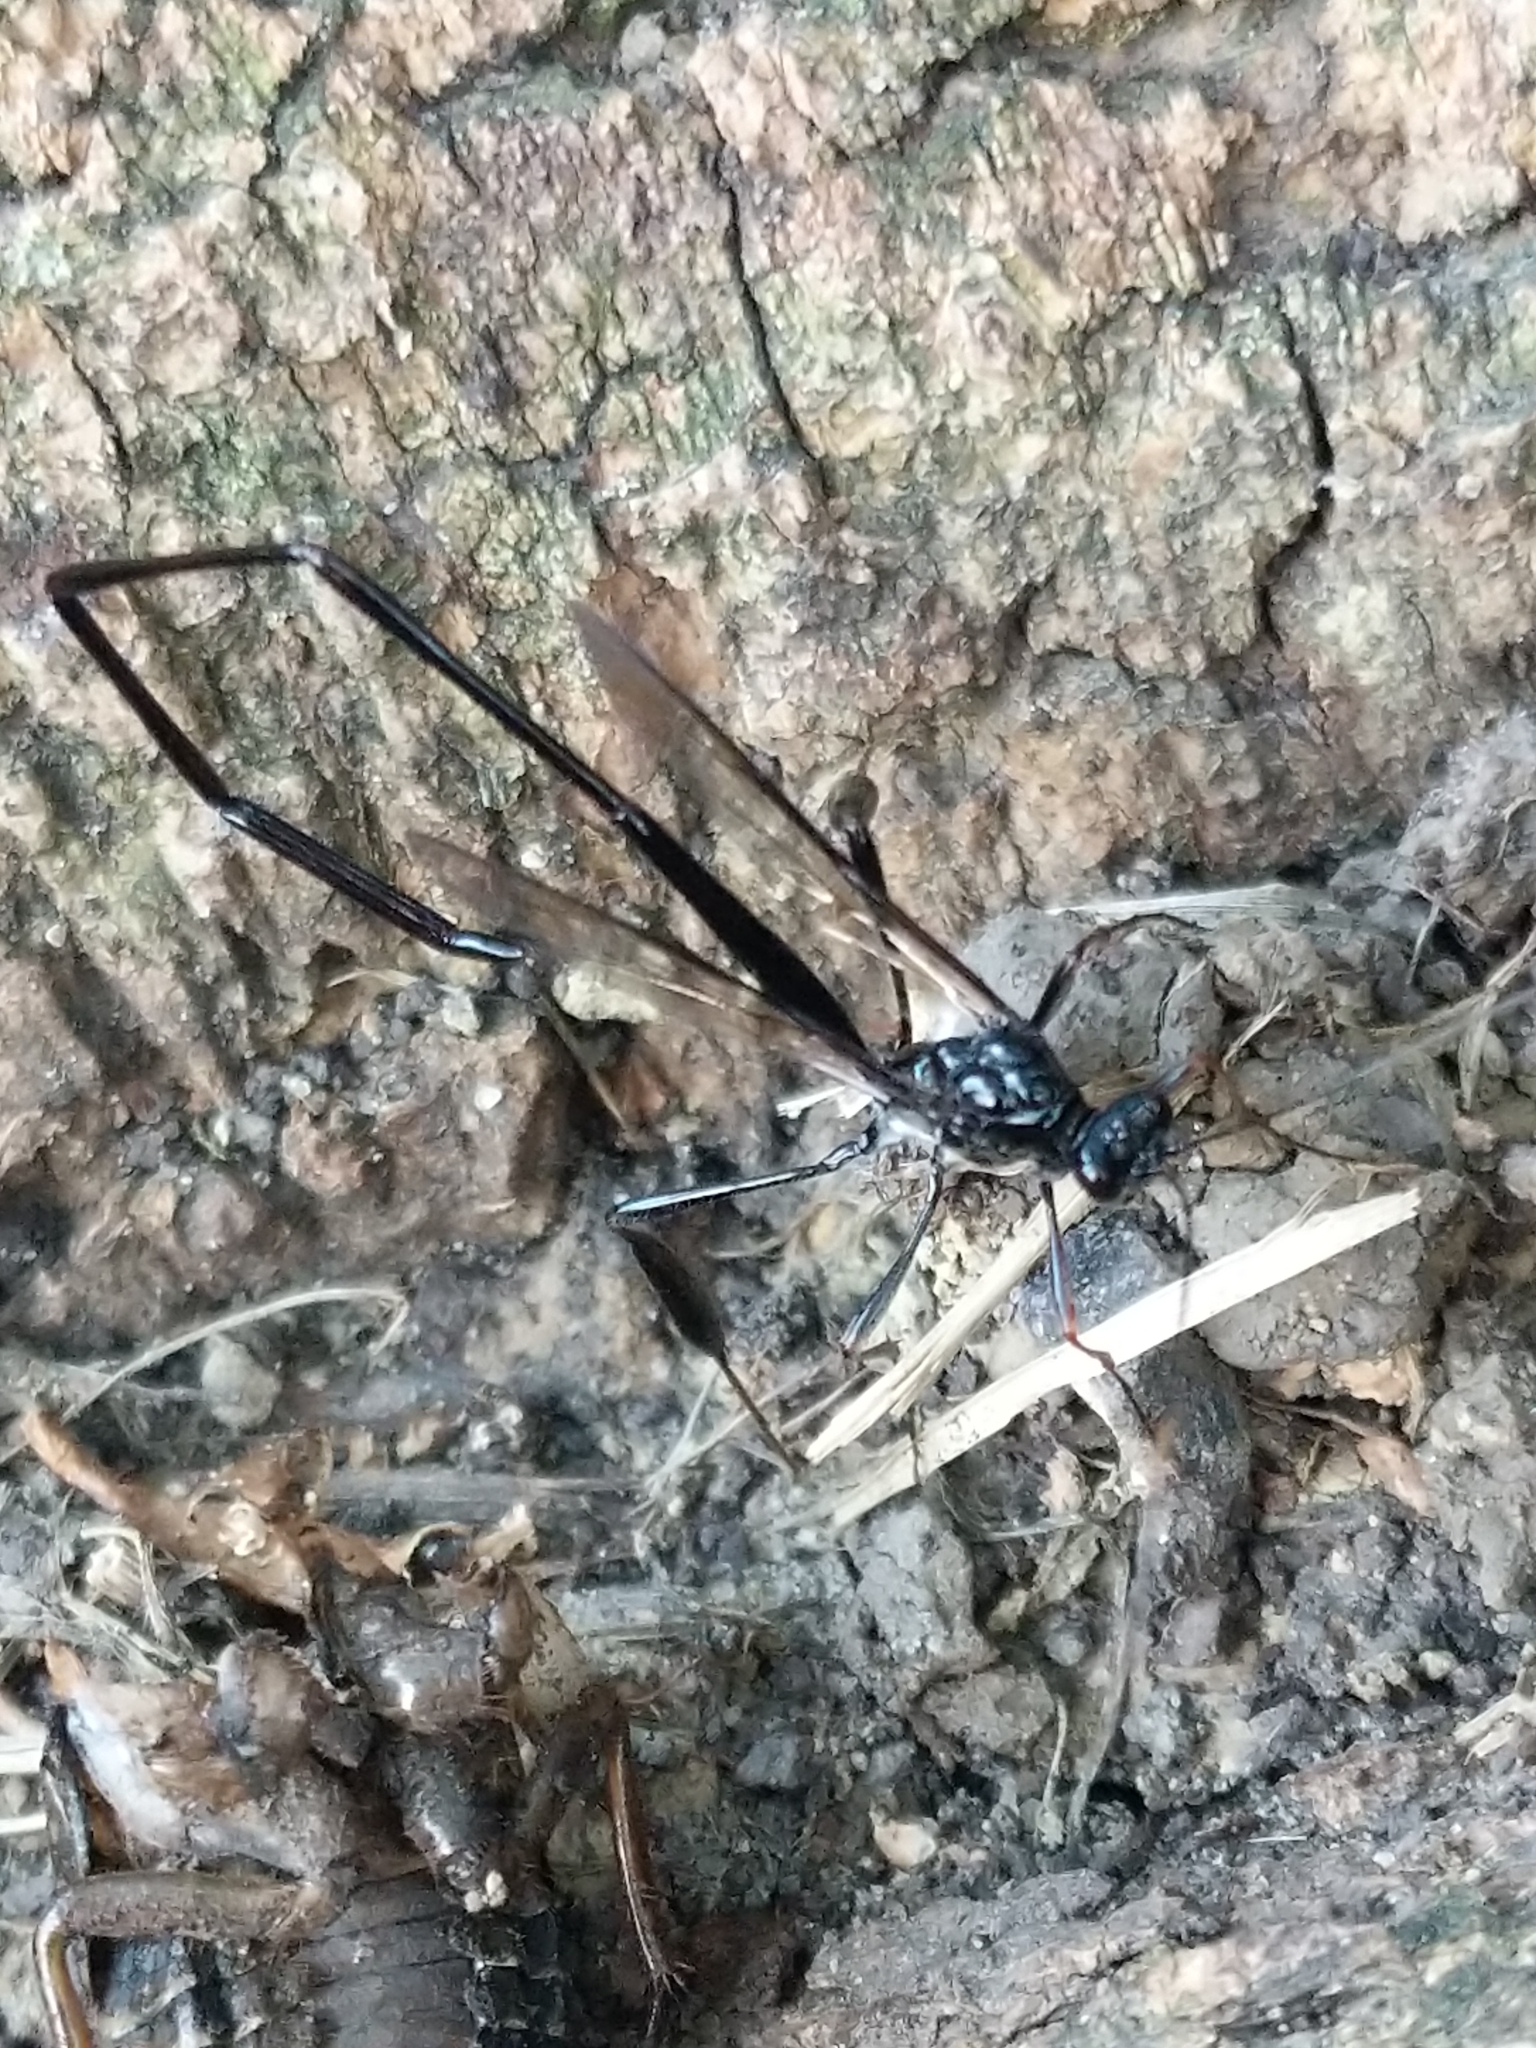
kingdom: Animalia
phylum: Arthropoda
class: Insecta
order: Hymenoptera
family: Pelecinidae
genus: Pelecinus
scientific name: Pelecinus polyturator
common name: American pelecinid wasp
